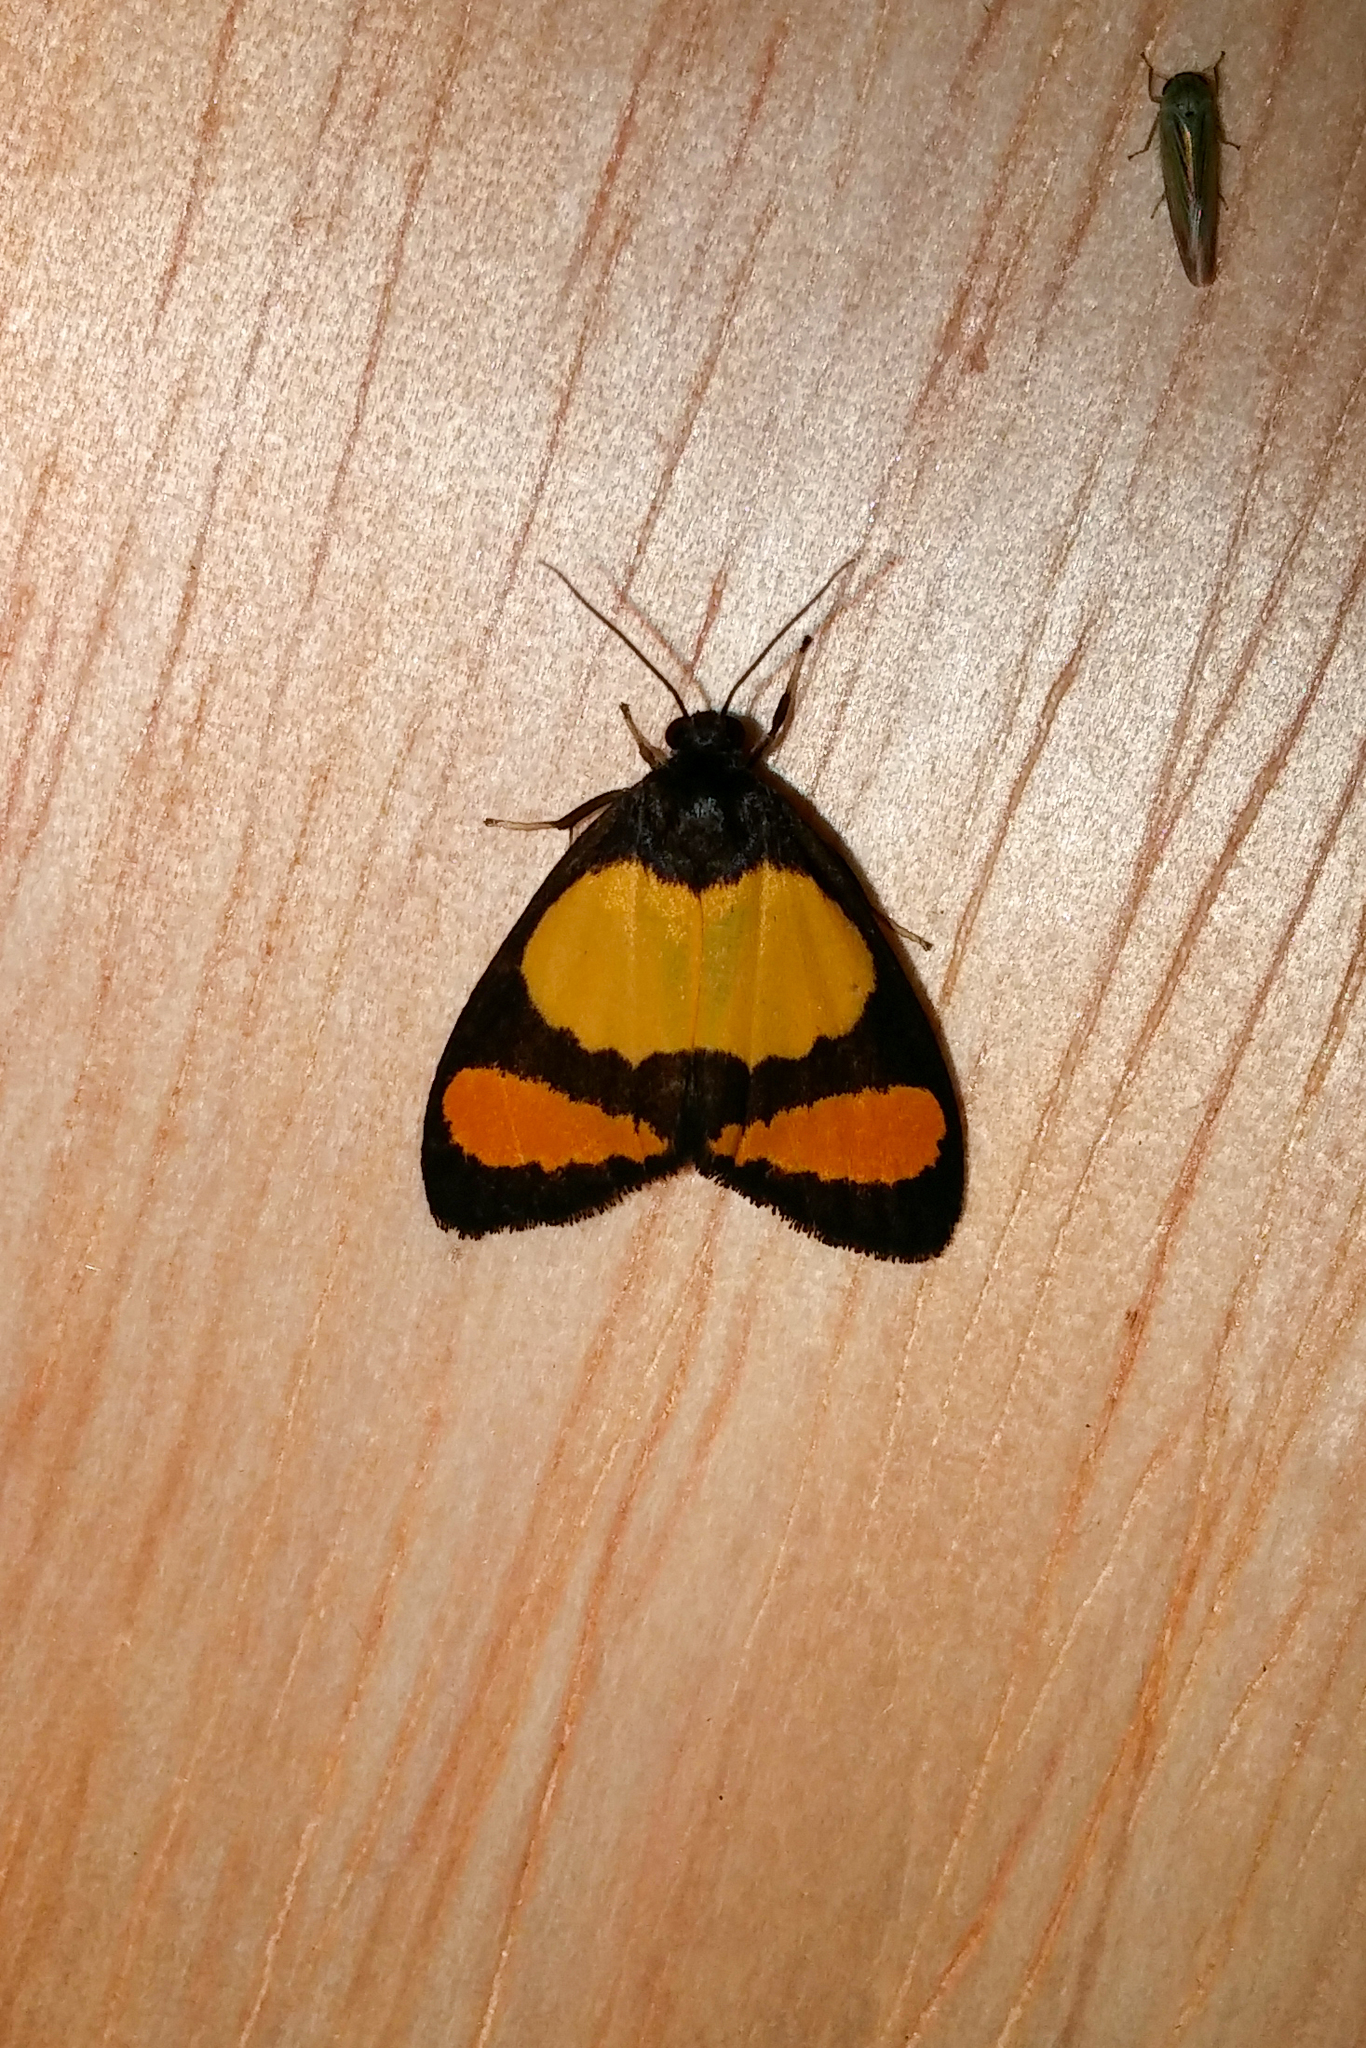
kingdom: Animalia
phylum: Arthropoda
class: Insecta
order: Lepidoptera
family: Erebidae
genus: Byrsia
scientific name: Byrsia dotata
